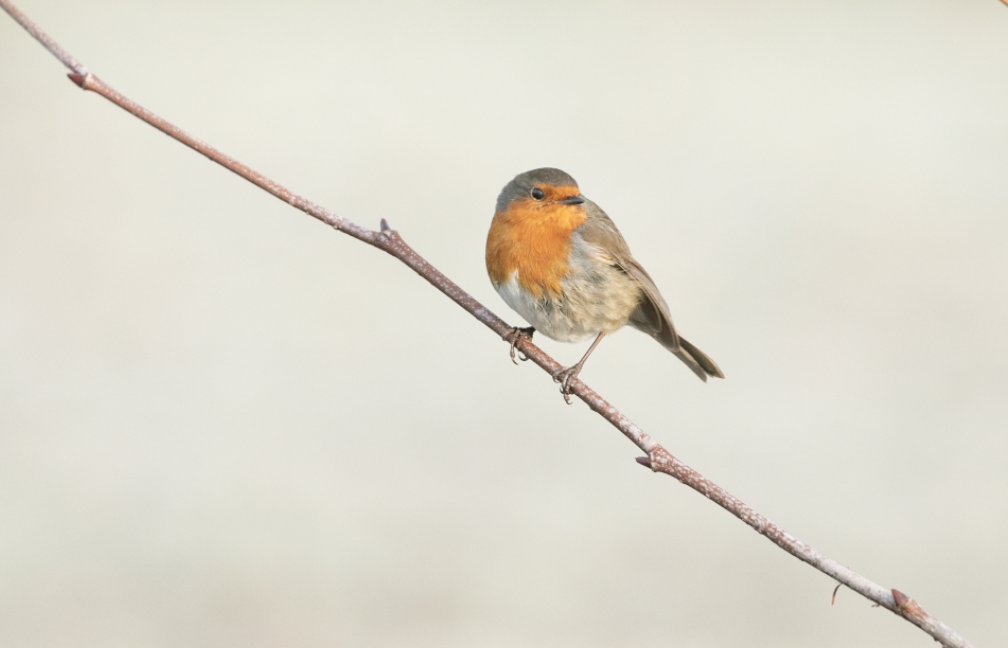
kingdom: Animalia
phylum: Chordata
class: Aves
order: Passeriformes
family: Muscicapidae
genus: Erithacus
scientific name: Erithacus rubecula
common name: European robin
